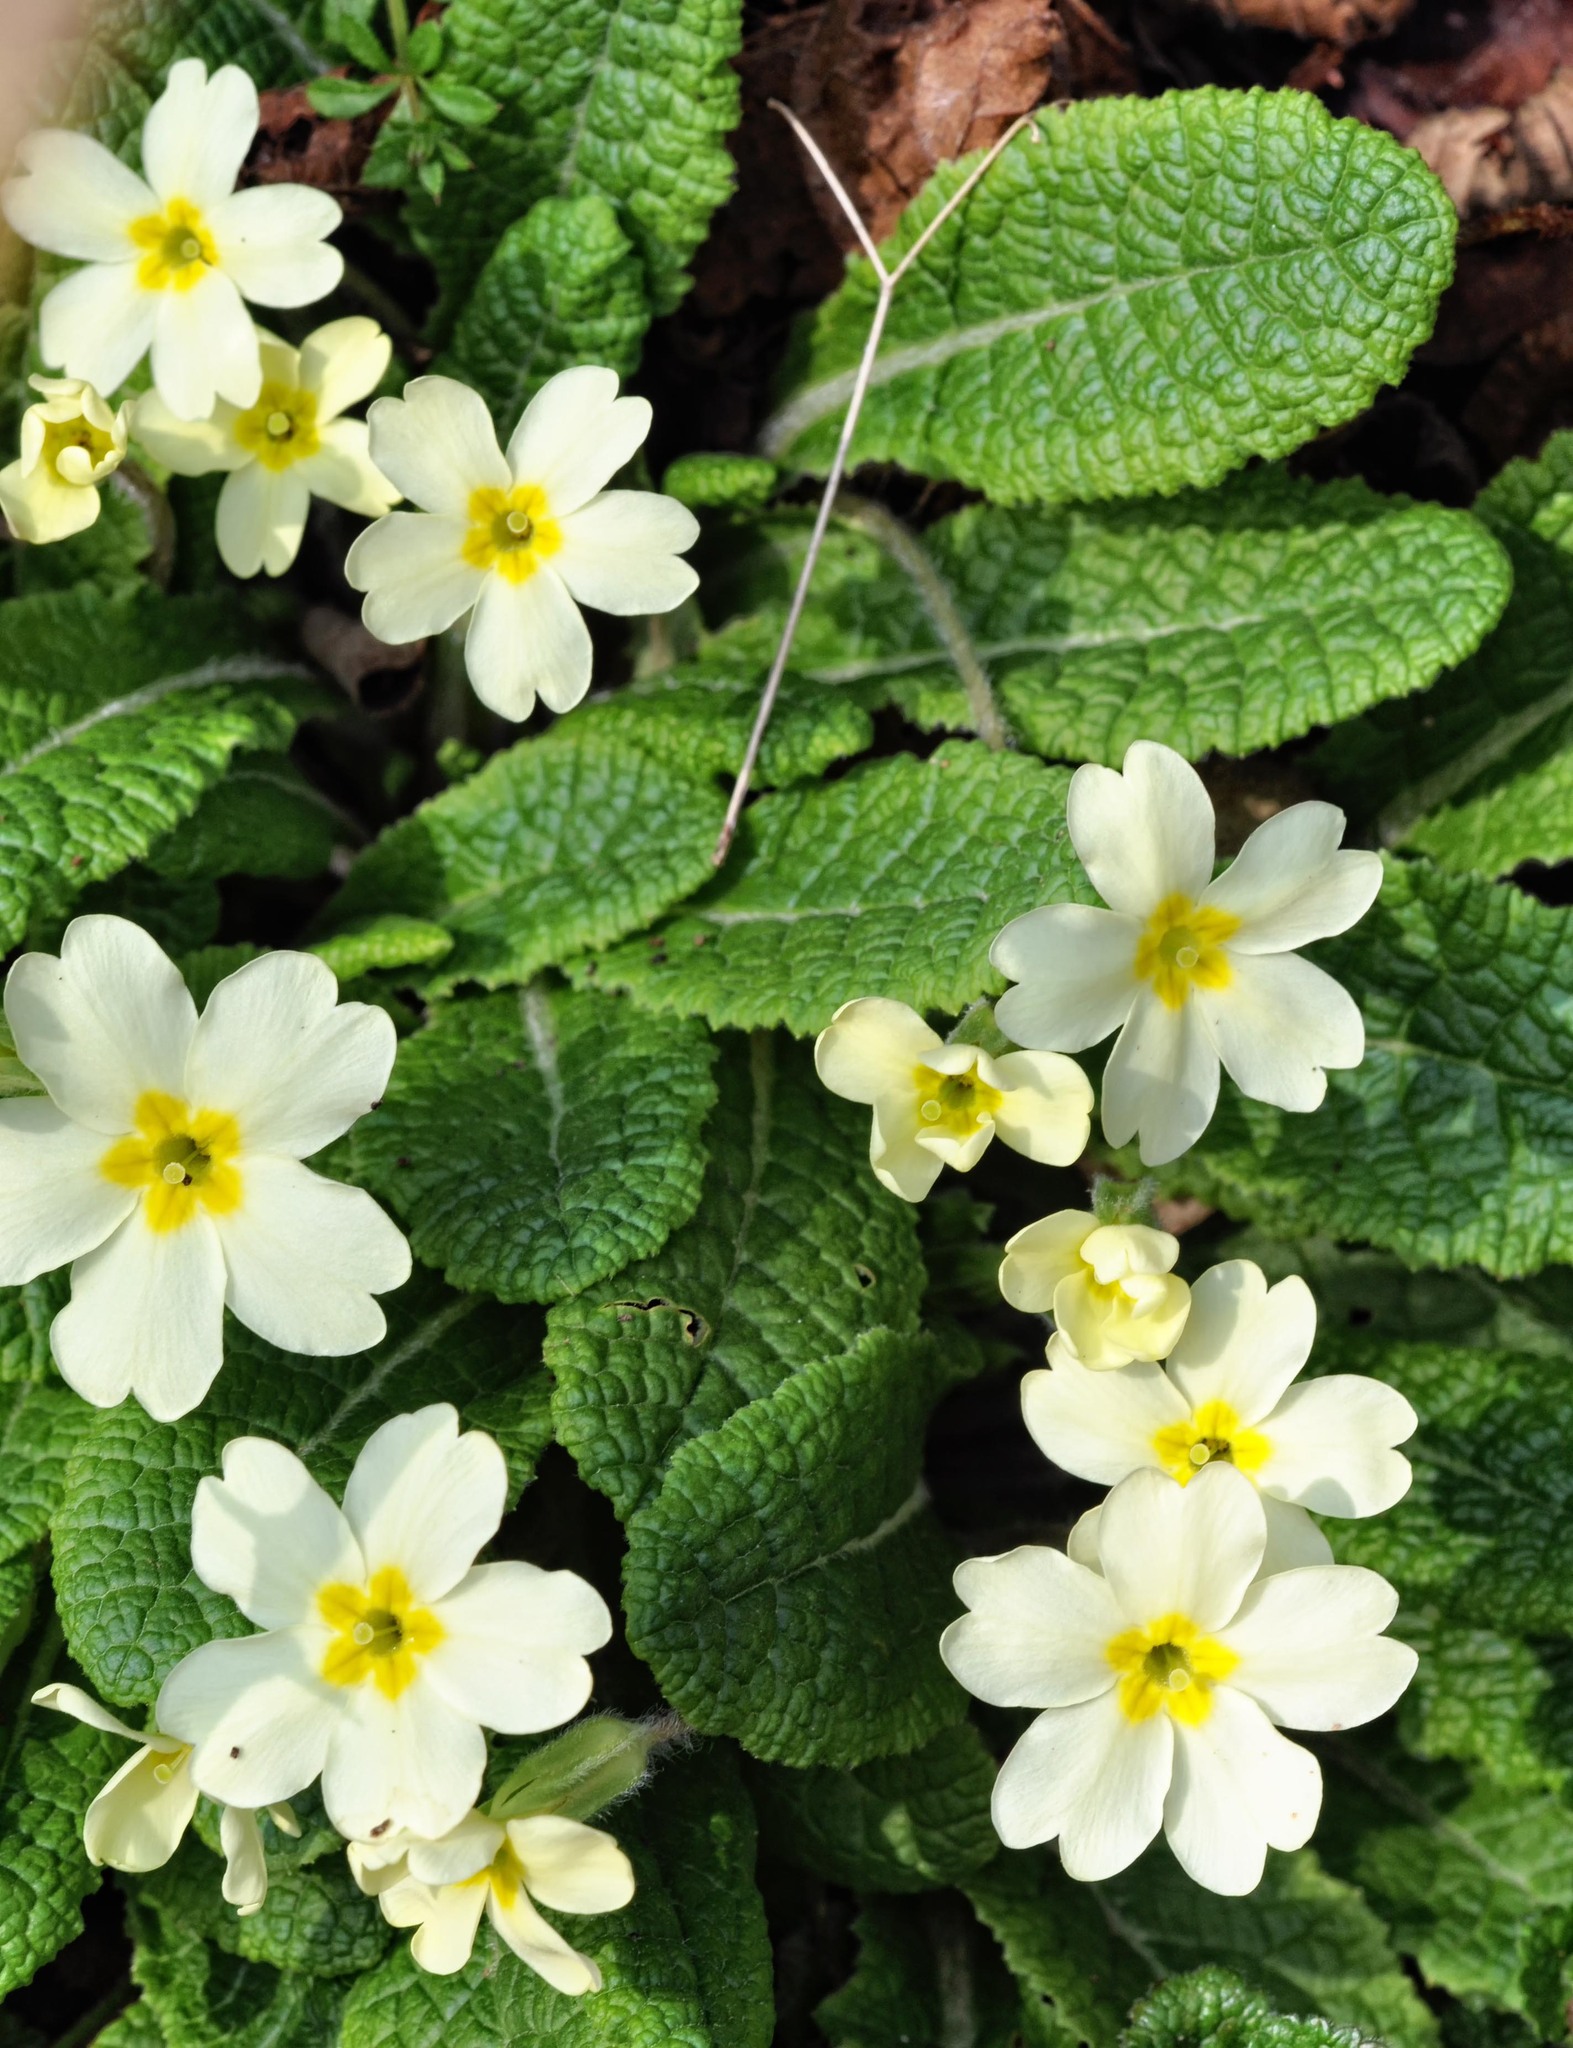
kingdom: Plantae
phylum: Tracheophyta
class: Magnoliopsida
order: Ericales
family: Primulaceae
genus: Primula
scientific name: Primula vulgaris
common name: Primrose
